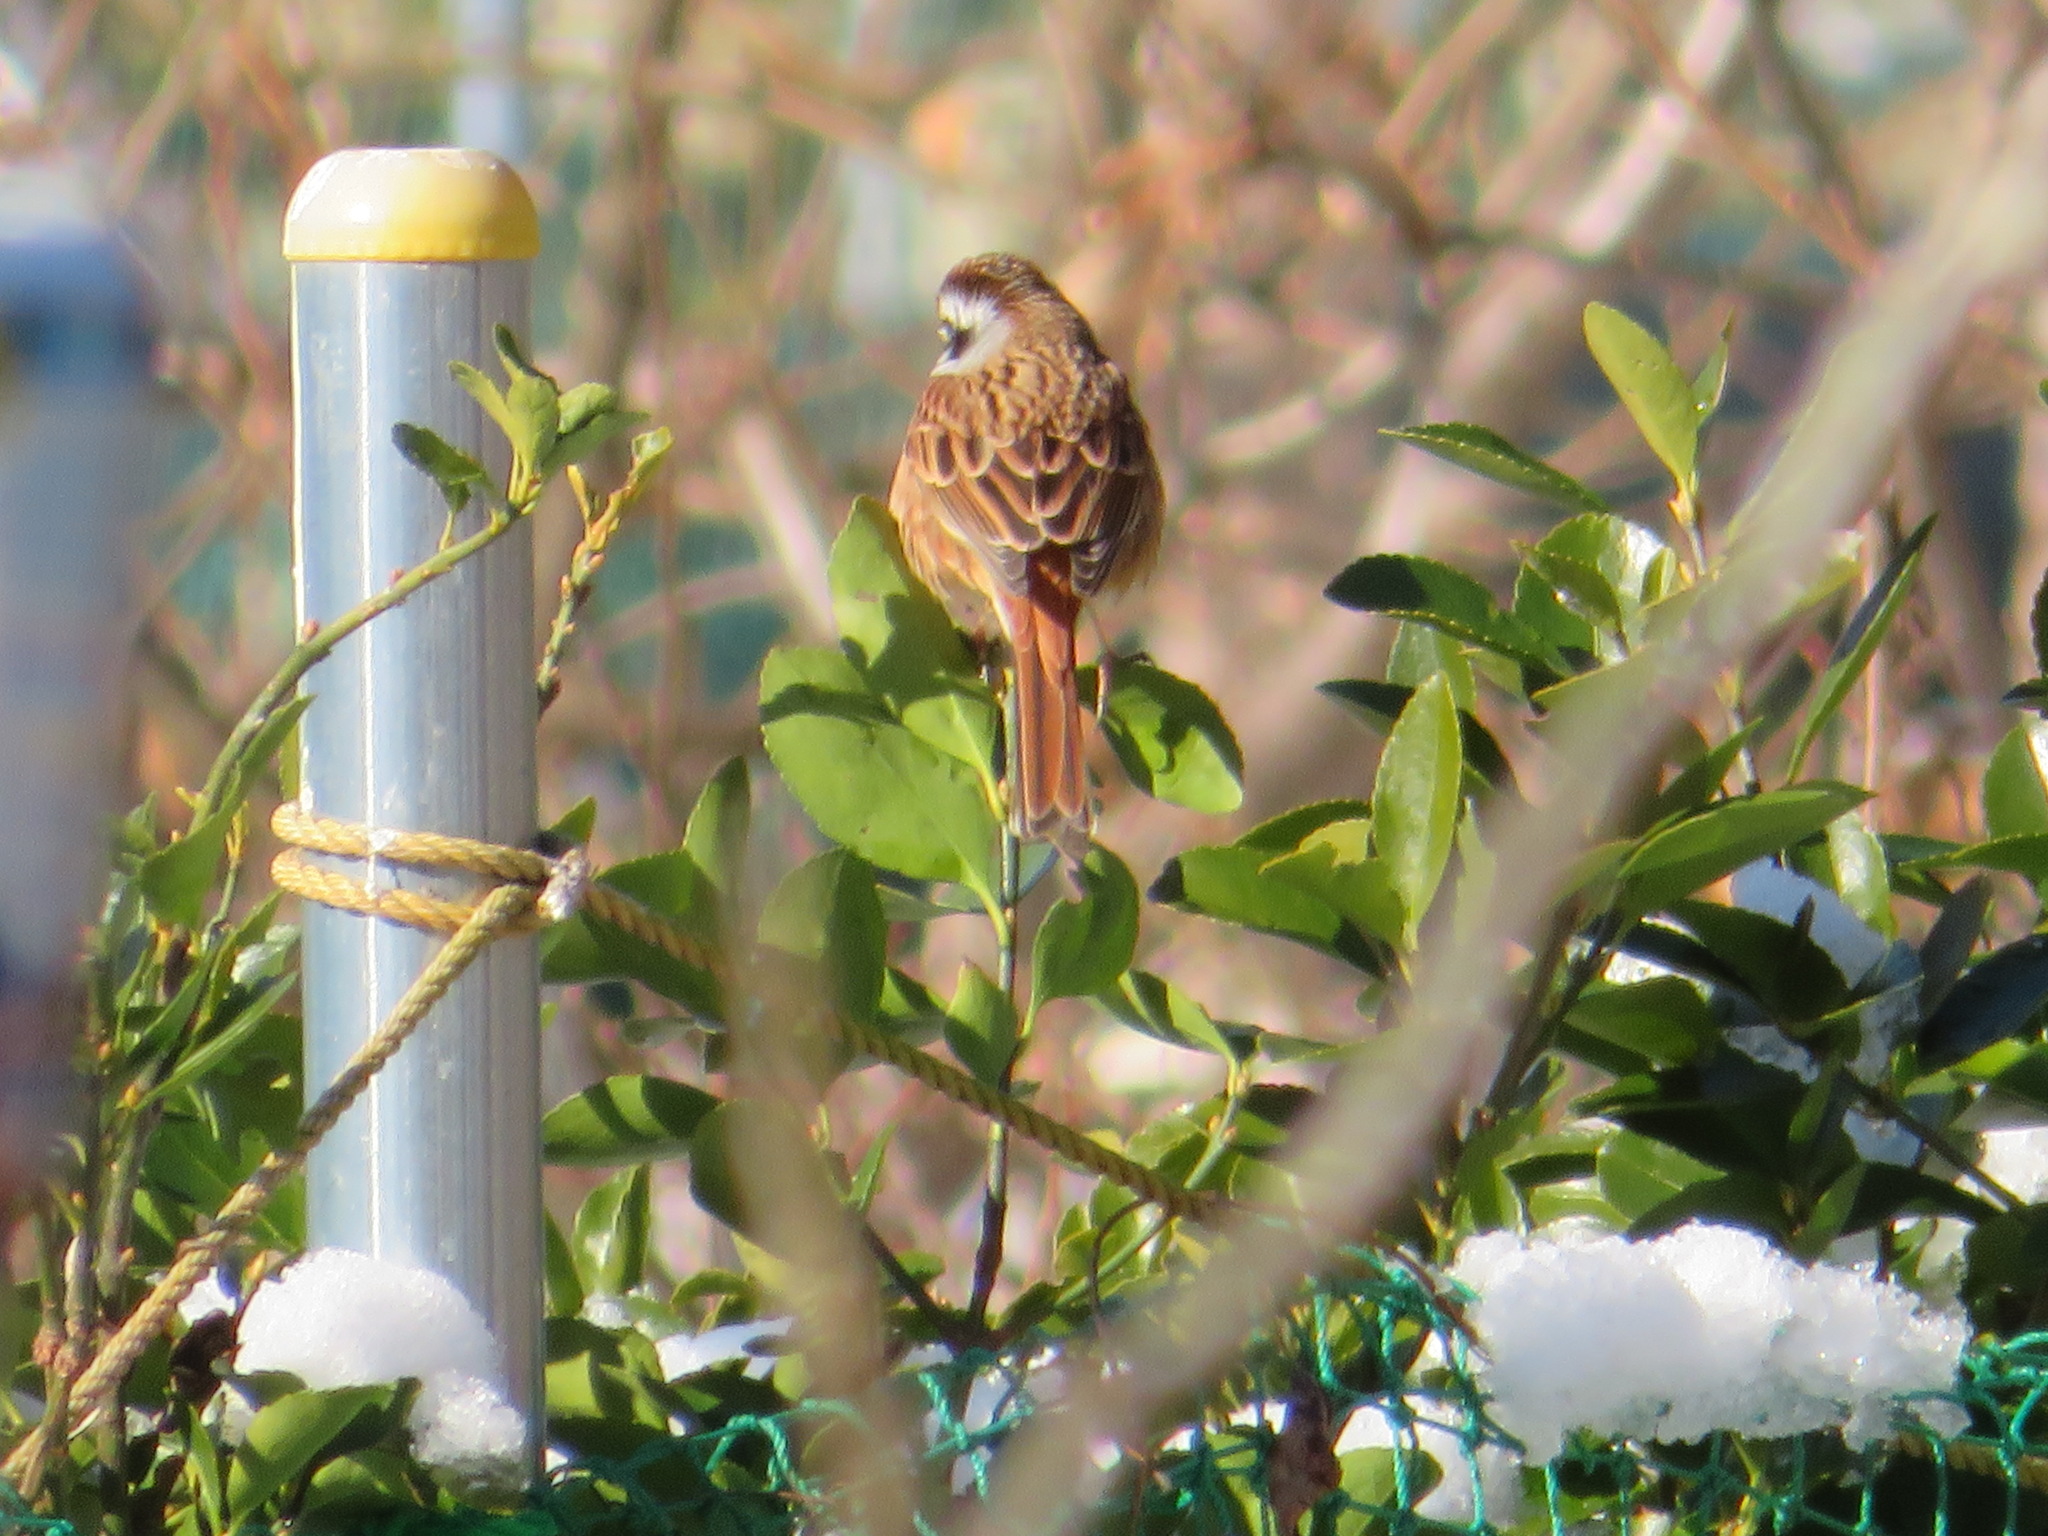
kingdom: Animalia
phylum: Chordata
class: Aves
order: Passeriformes
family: Emberizidae
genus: Emberiza
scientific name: Emberiza cioides
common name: Meadow bunting
